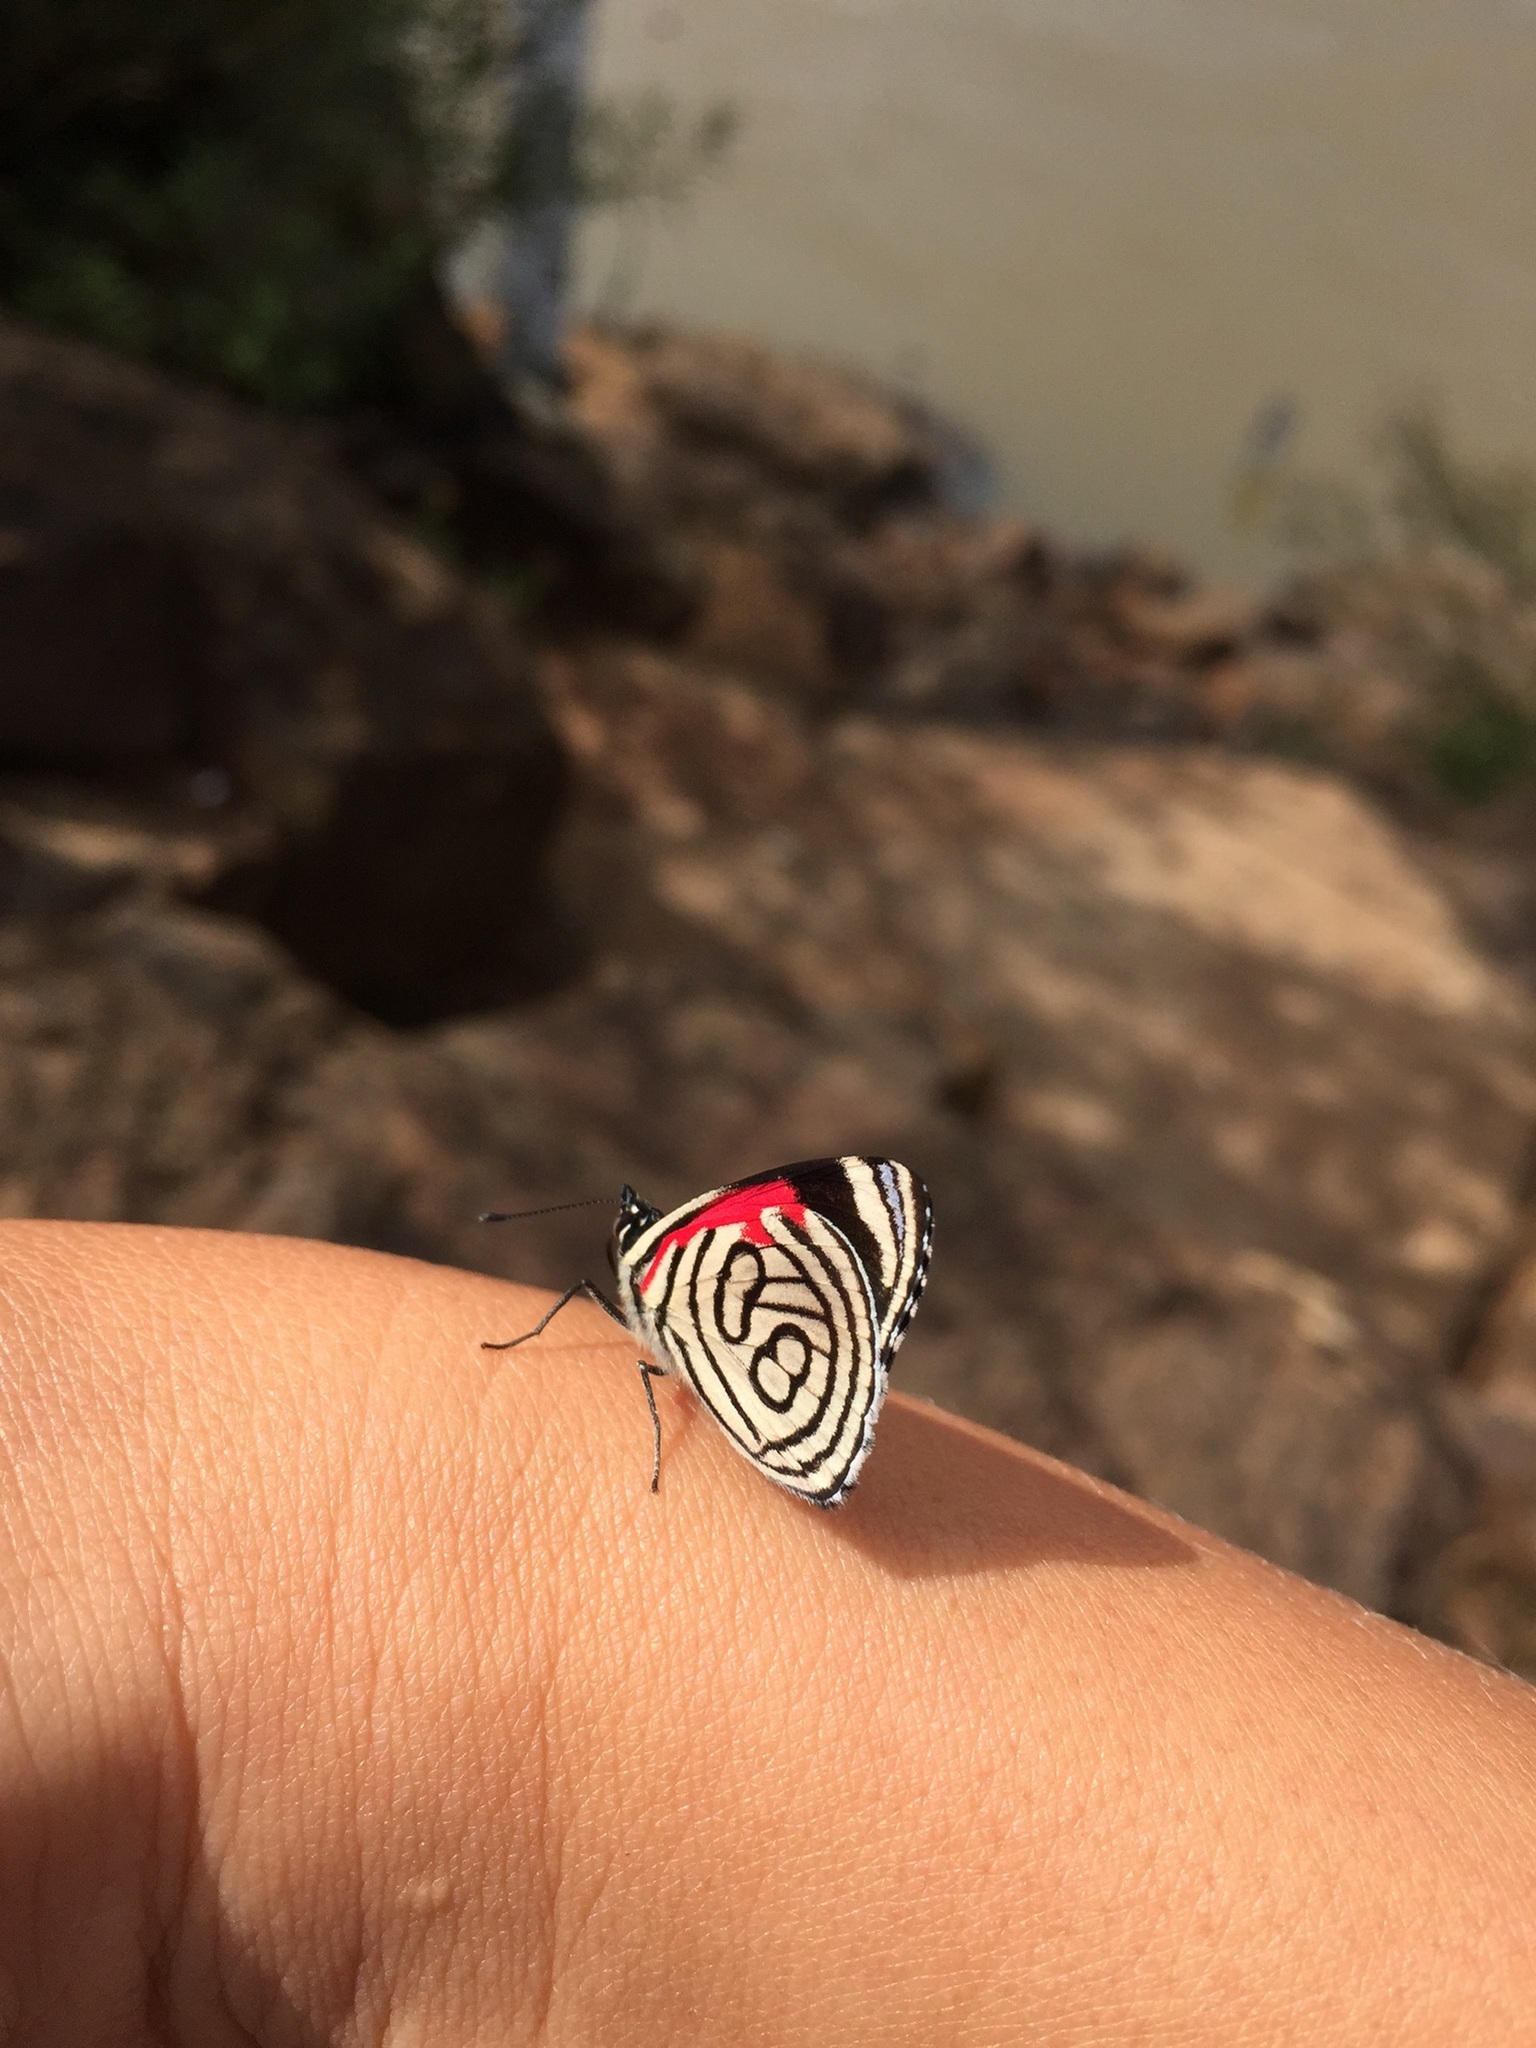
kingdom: Animalia
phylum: Arthropoda
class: Insecta
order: Lepidoptera
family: Nymphalidae
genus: Diaethria
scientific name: Diaethria candrena
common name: Number eighty
